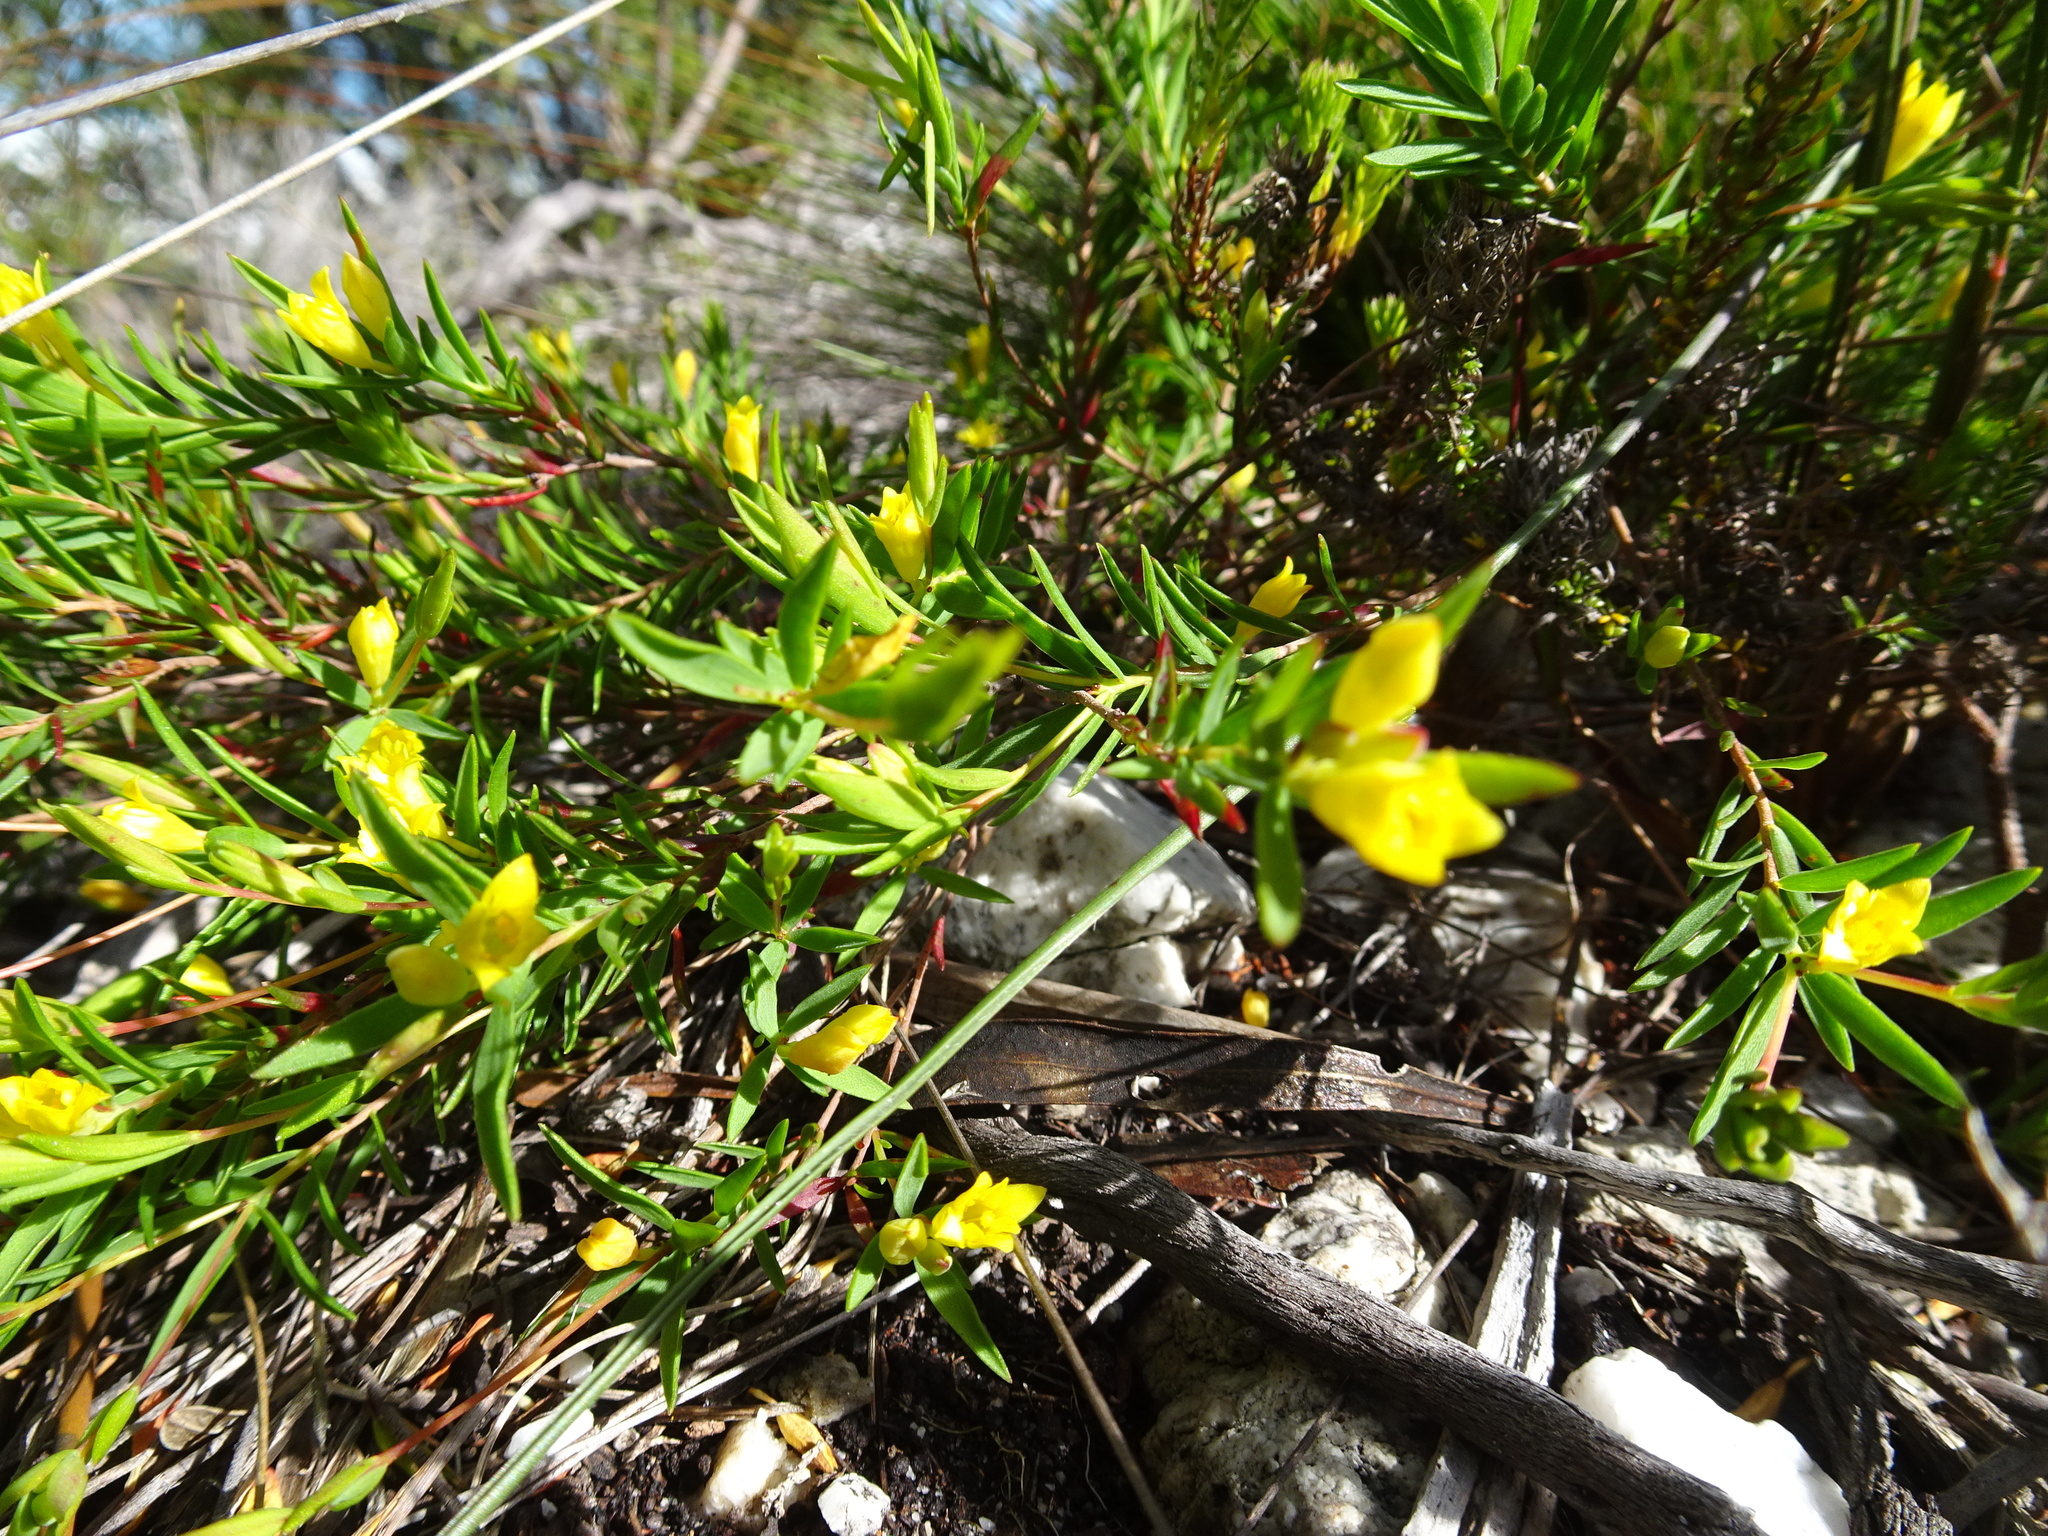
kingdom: Plantae
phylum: Tracheophyta
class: Magnoliopsida
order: Malvales
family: Thymelaeaceae
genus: Gnidia
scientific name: Gnidia juniperifolia
